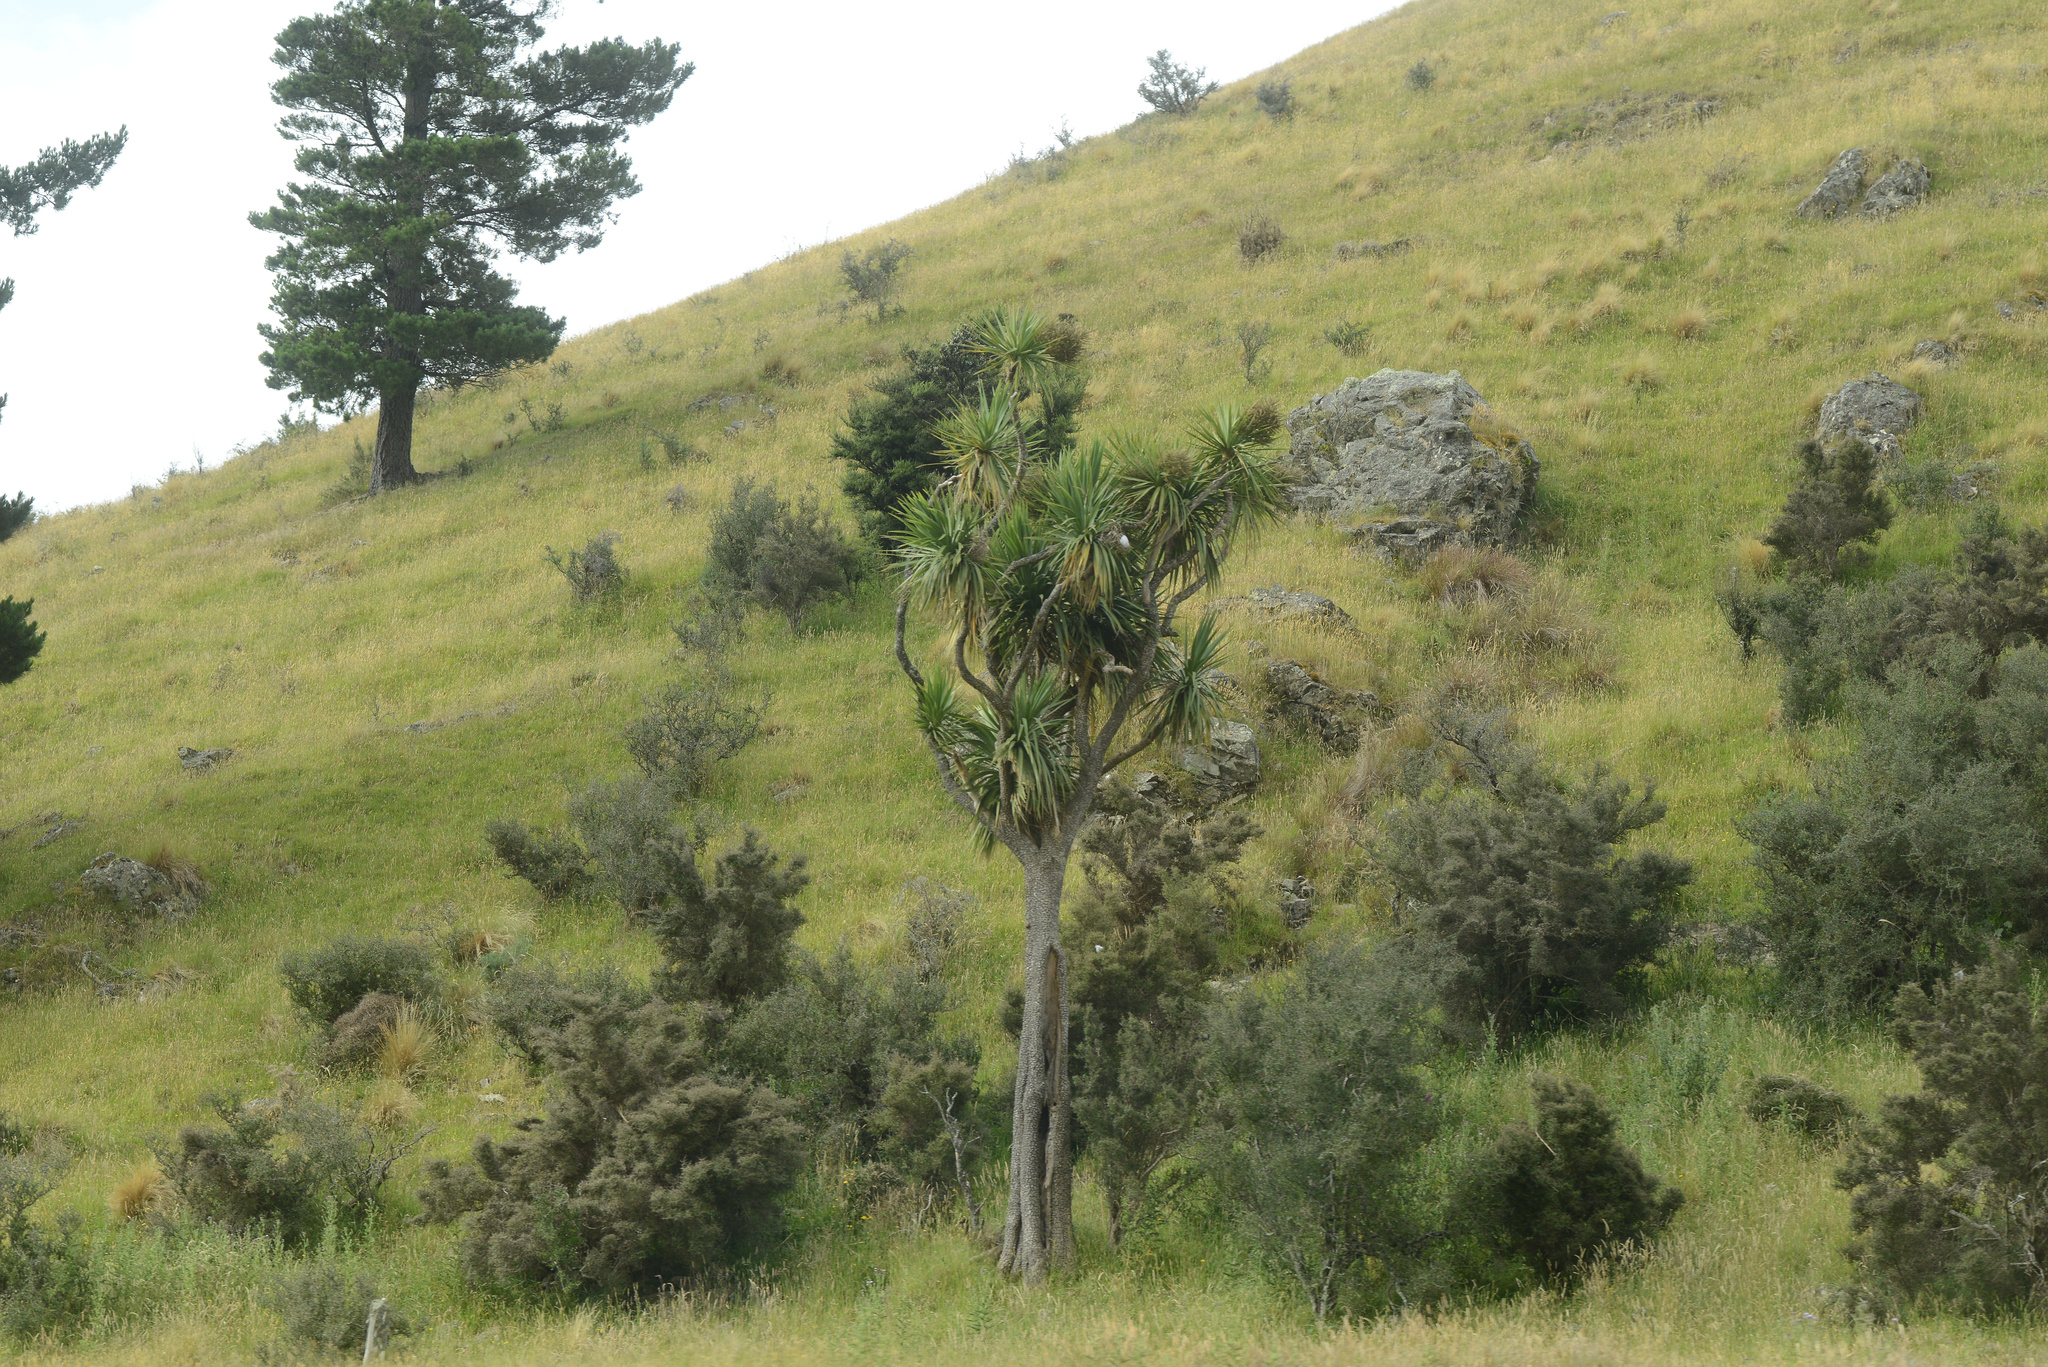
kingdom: Plantae
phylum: Tracheophyta
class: Liliopsida
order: Asparagales
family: Asparagaceae
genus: Cordyline
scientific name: Cordyline australis
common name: Cabbage-palm
